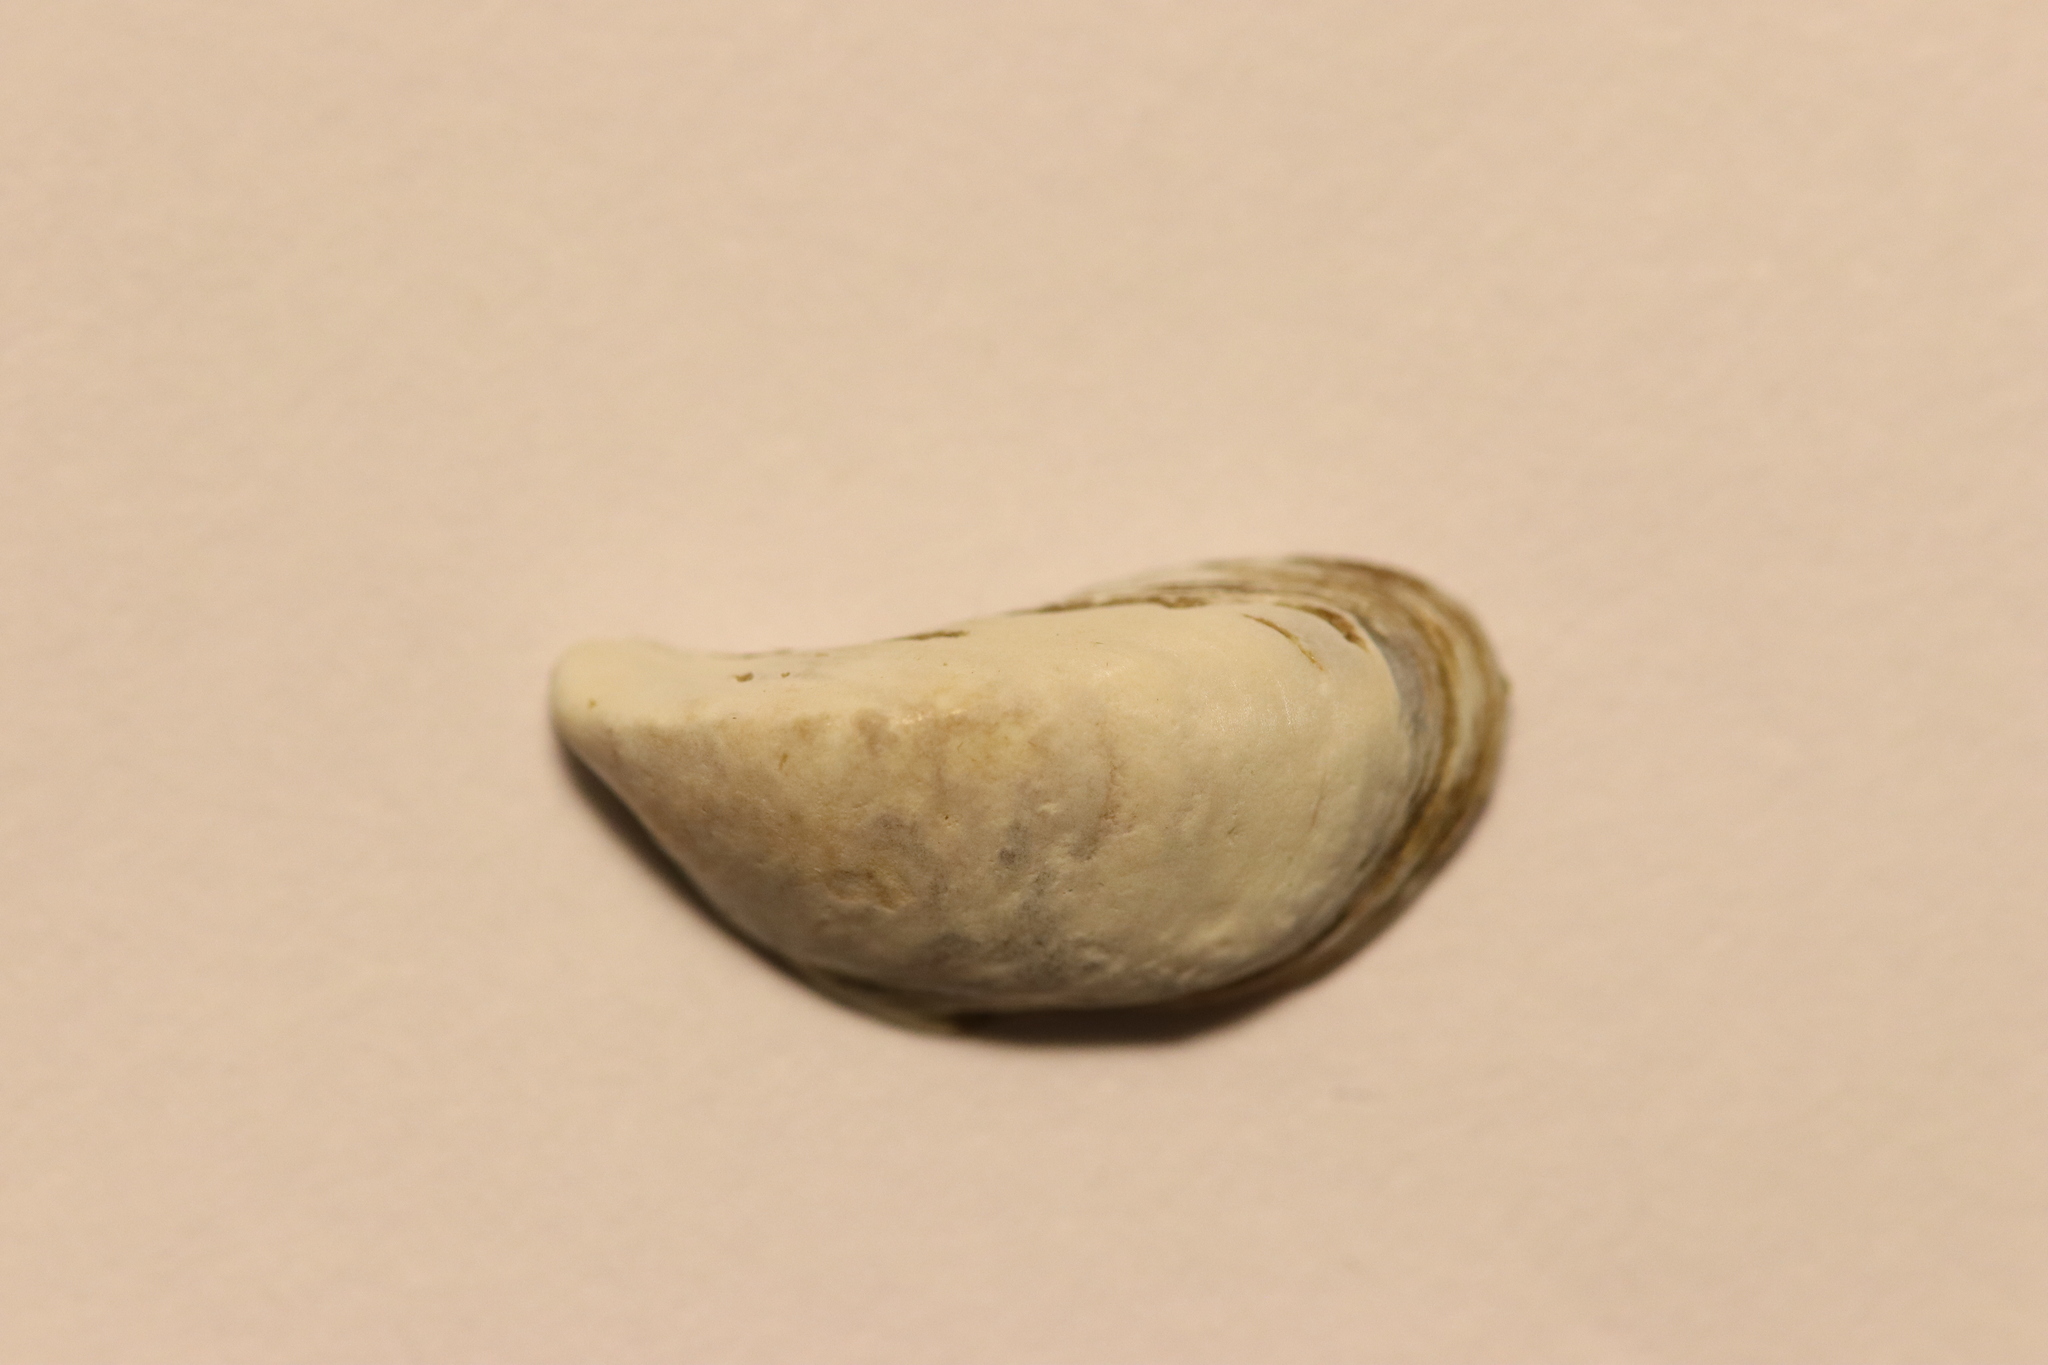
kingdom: Animalia
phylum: Mollusca
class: Bivalvia
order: Myida
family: Dreissenidae
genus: Dreissena
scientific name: Dreissena polymorpha
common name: Zebra mussel
